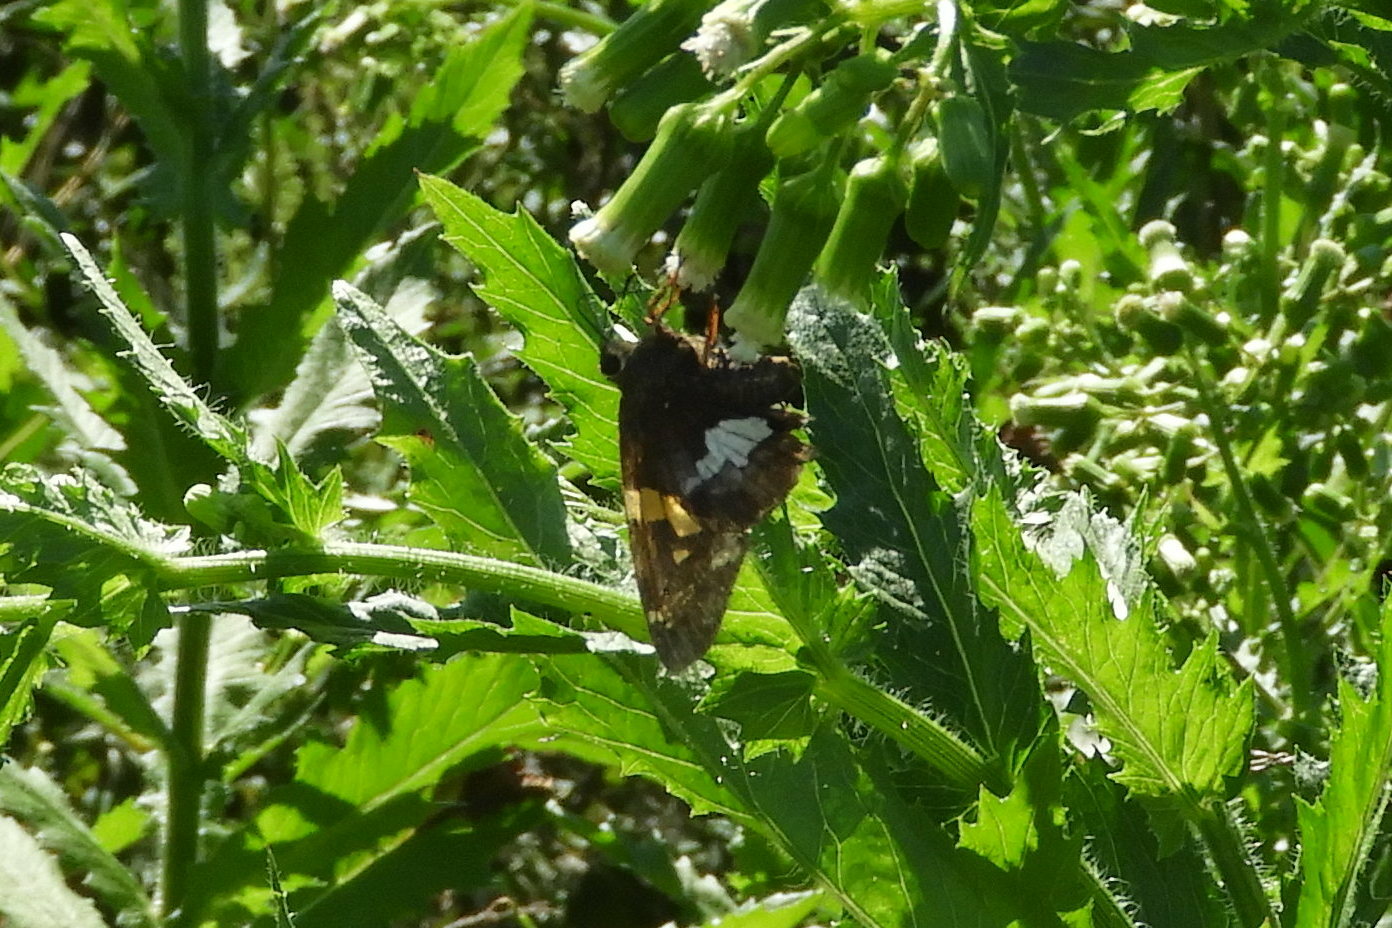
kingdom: Animalia
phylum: Arthropoda
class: Insecta
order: Lepidoptera
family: Hesperiidae
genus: Epargyreus
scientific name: Epargyreus clarus
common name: Silver-spotted skipper
